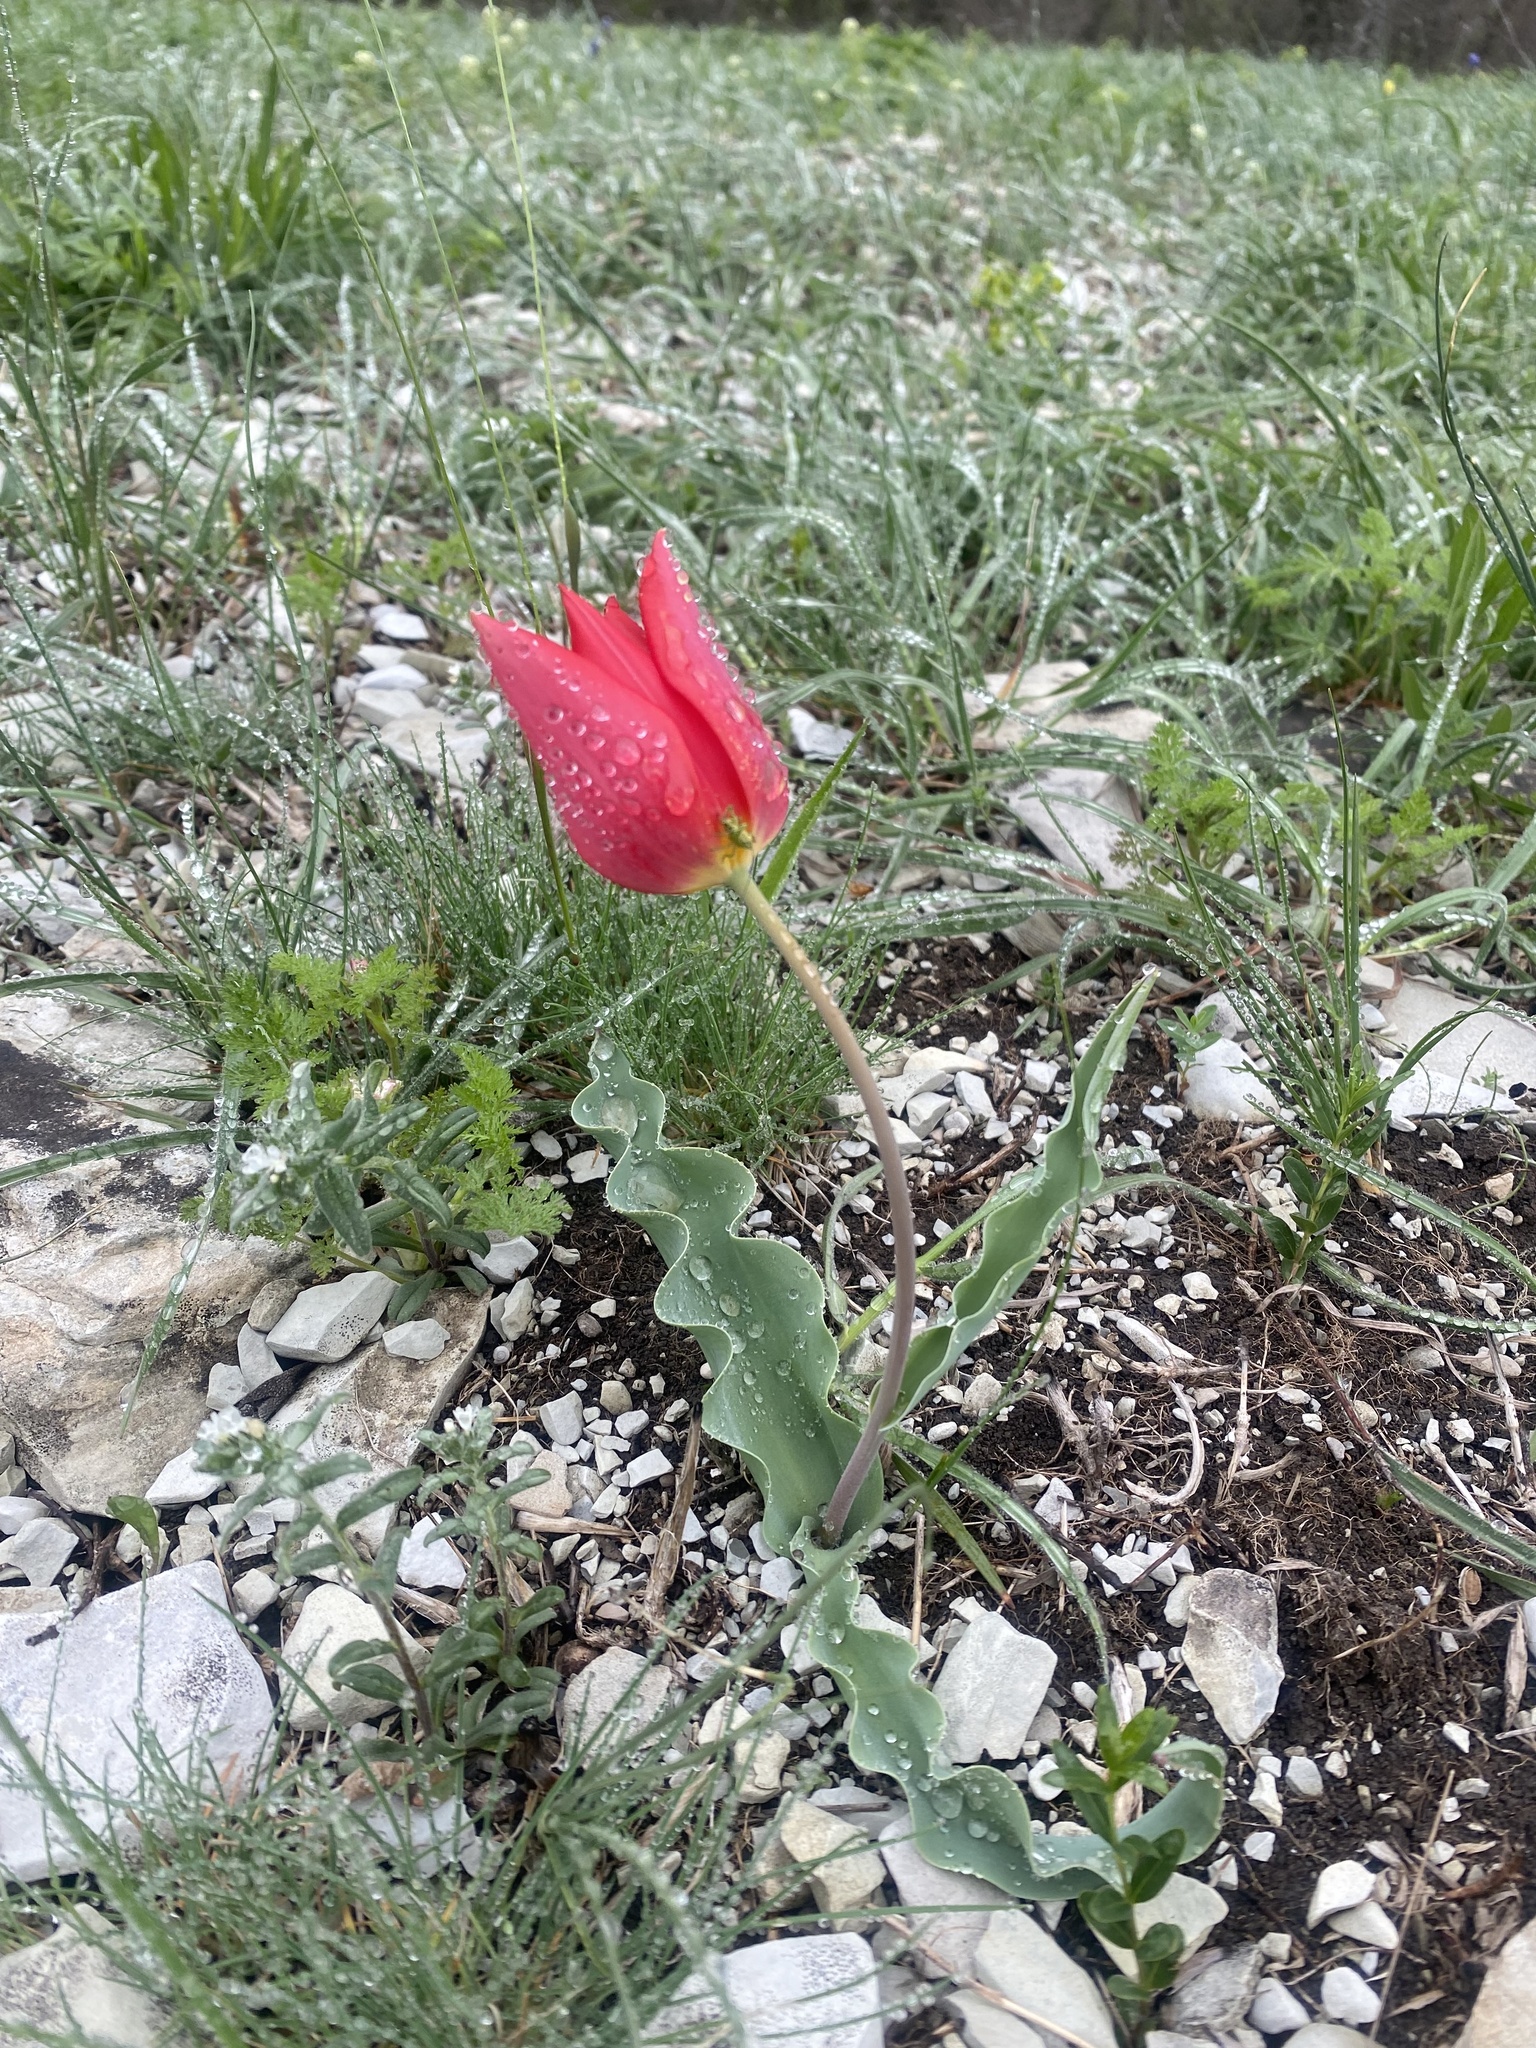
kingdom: Plantae
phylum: Tracheophyta
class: Liliopsida
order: Liliales
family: Liliaceae
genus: Tulipa
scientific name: Tulipa suaveolens
